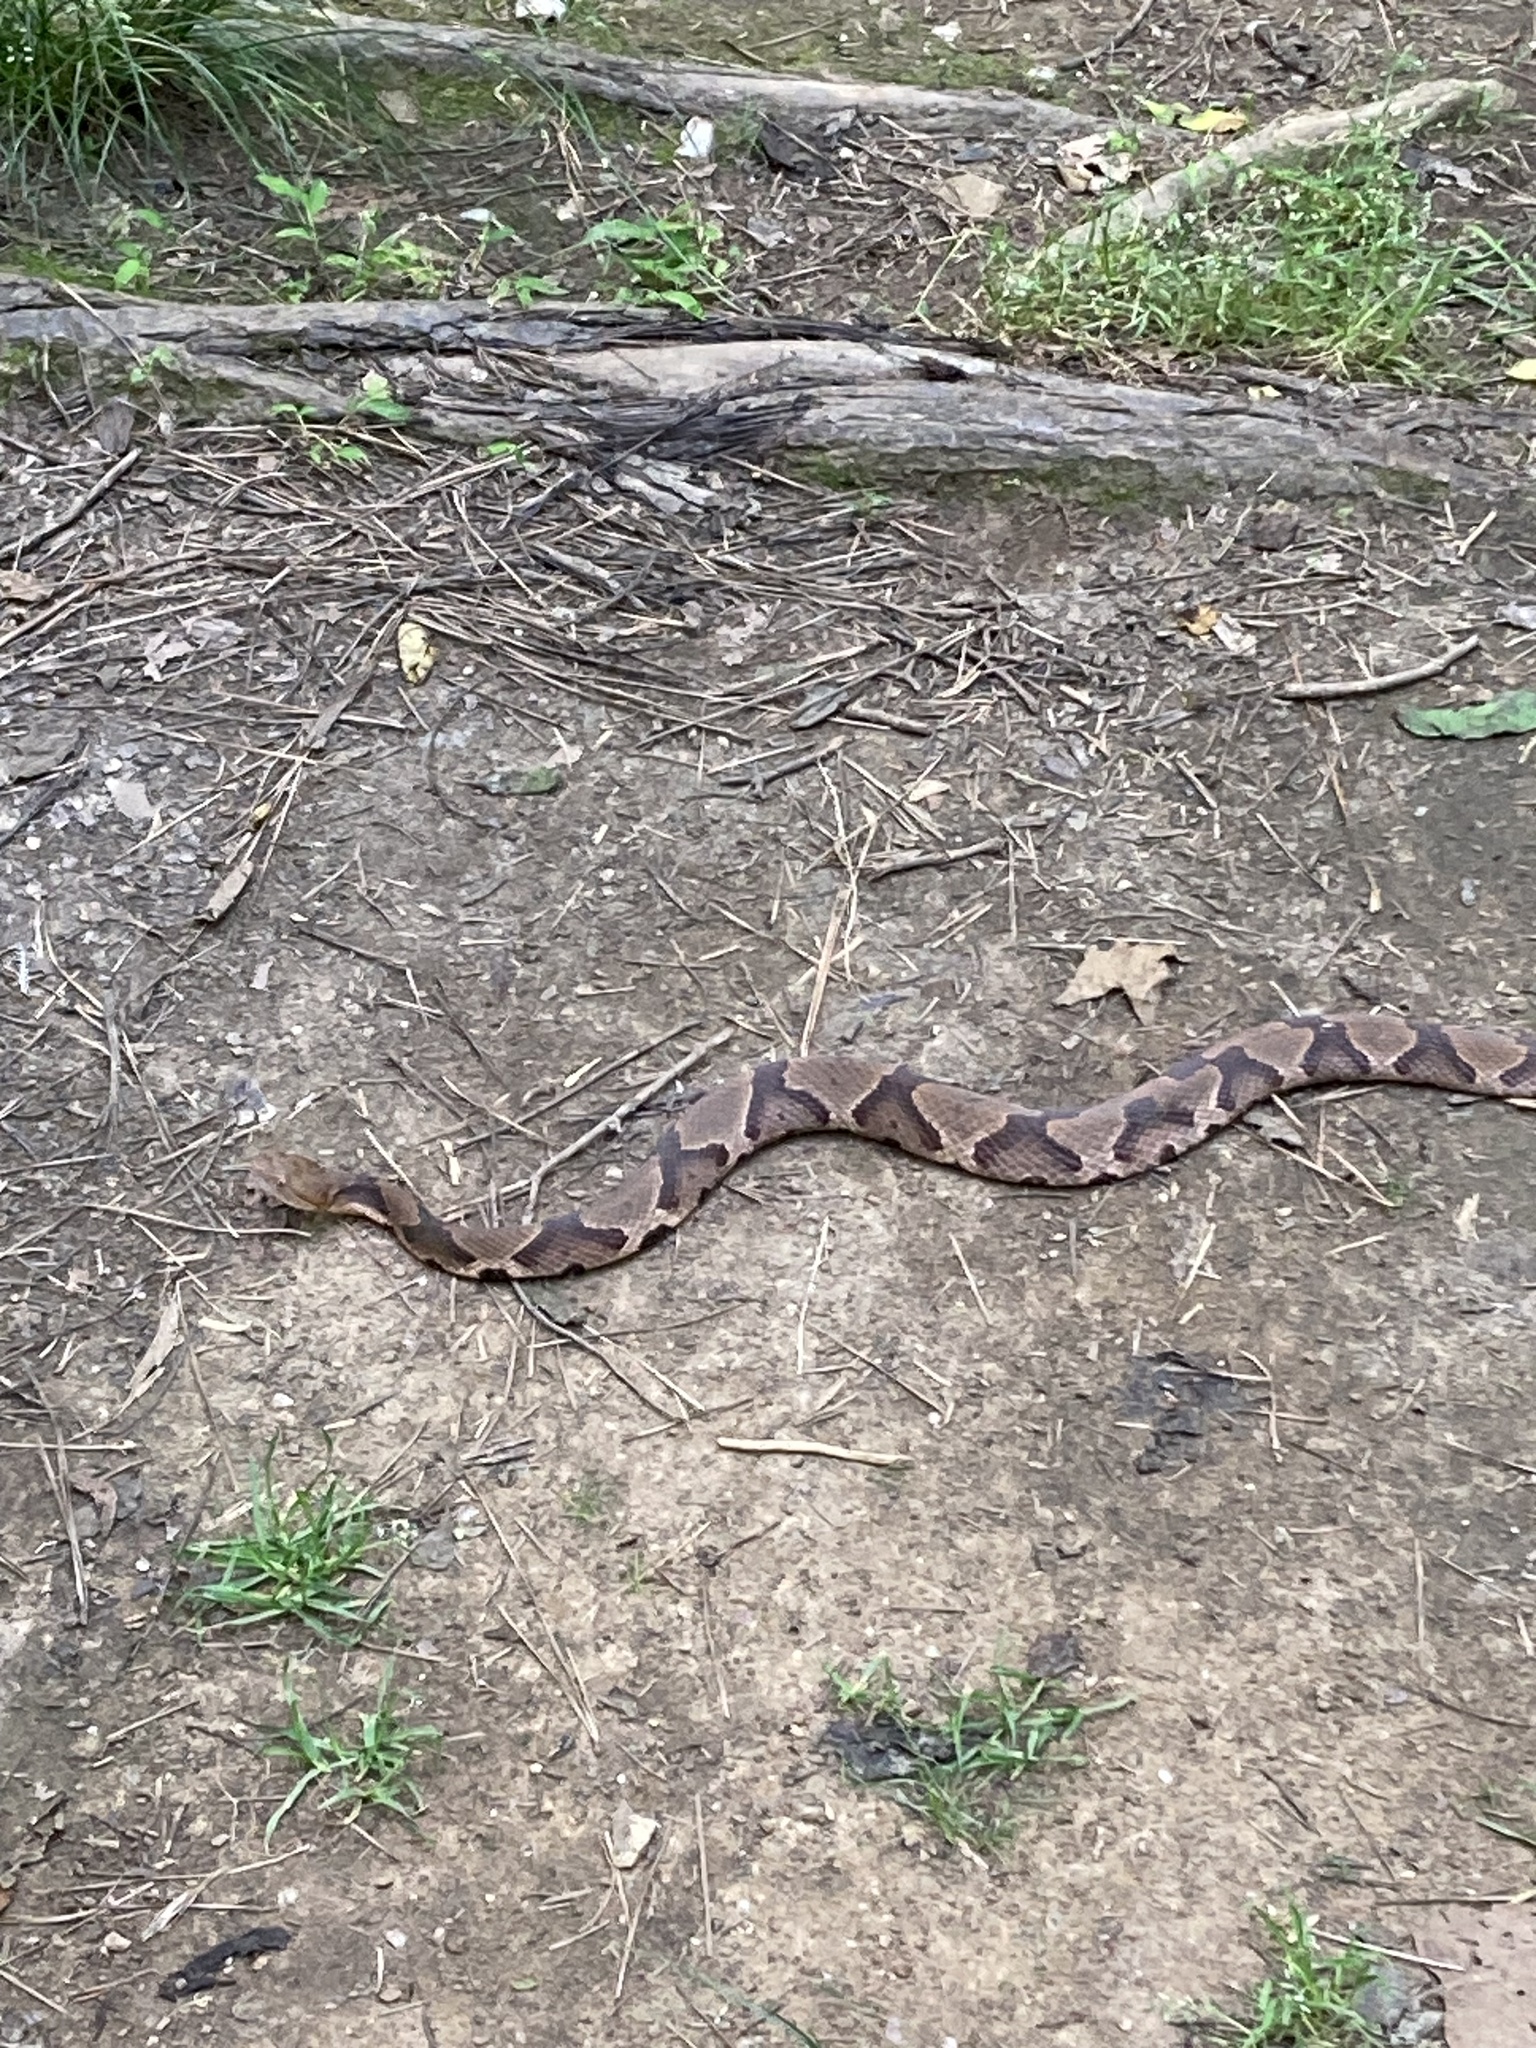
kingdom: Animalia
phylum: Chordata
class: Squamata
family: Viperidae
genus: Agkistrodon
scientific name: Agkistrodon contortrix
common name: Northern copperhead
